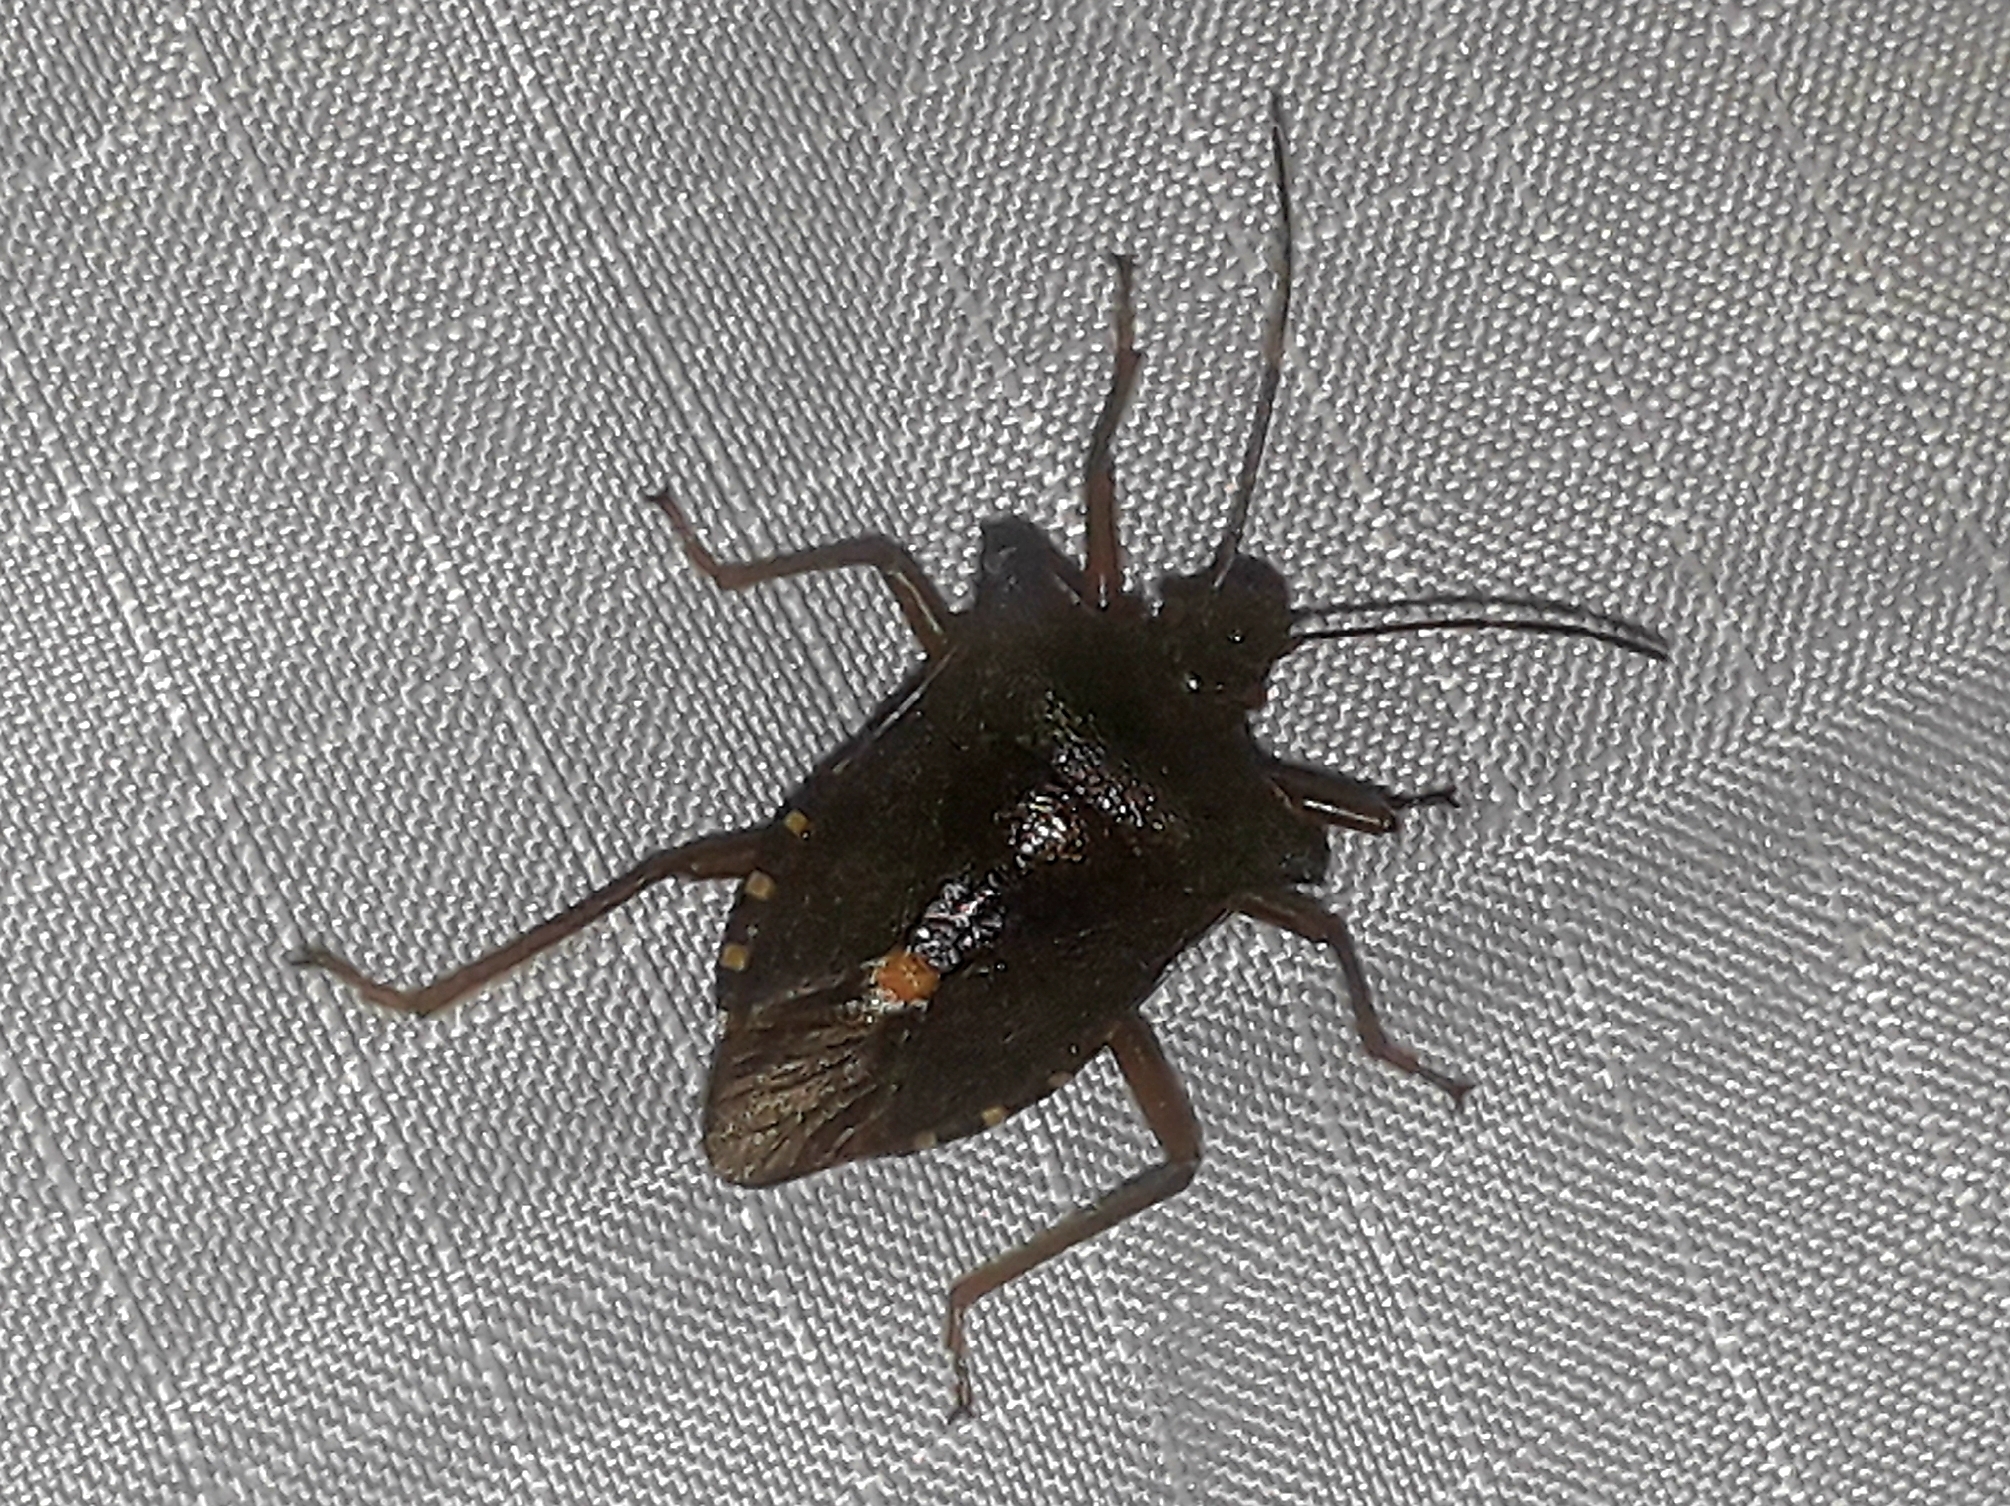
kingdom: Animalia
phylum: Arthropoda
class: Insecta
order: Hemiptera
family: Pentatomidae
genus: Pentatoma
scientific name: Pentatoma rufipes
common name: Forest bug
